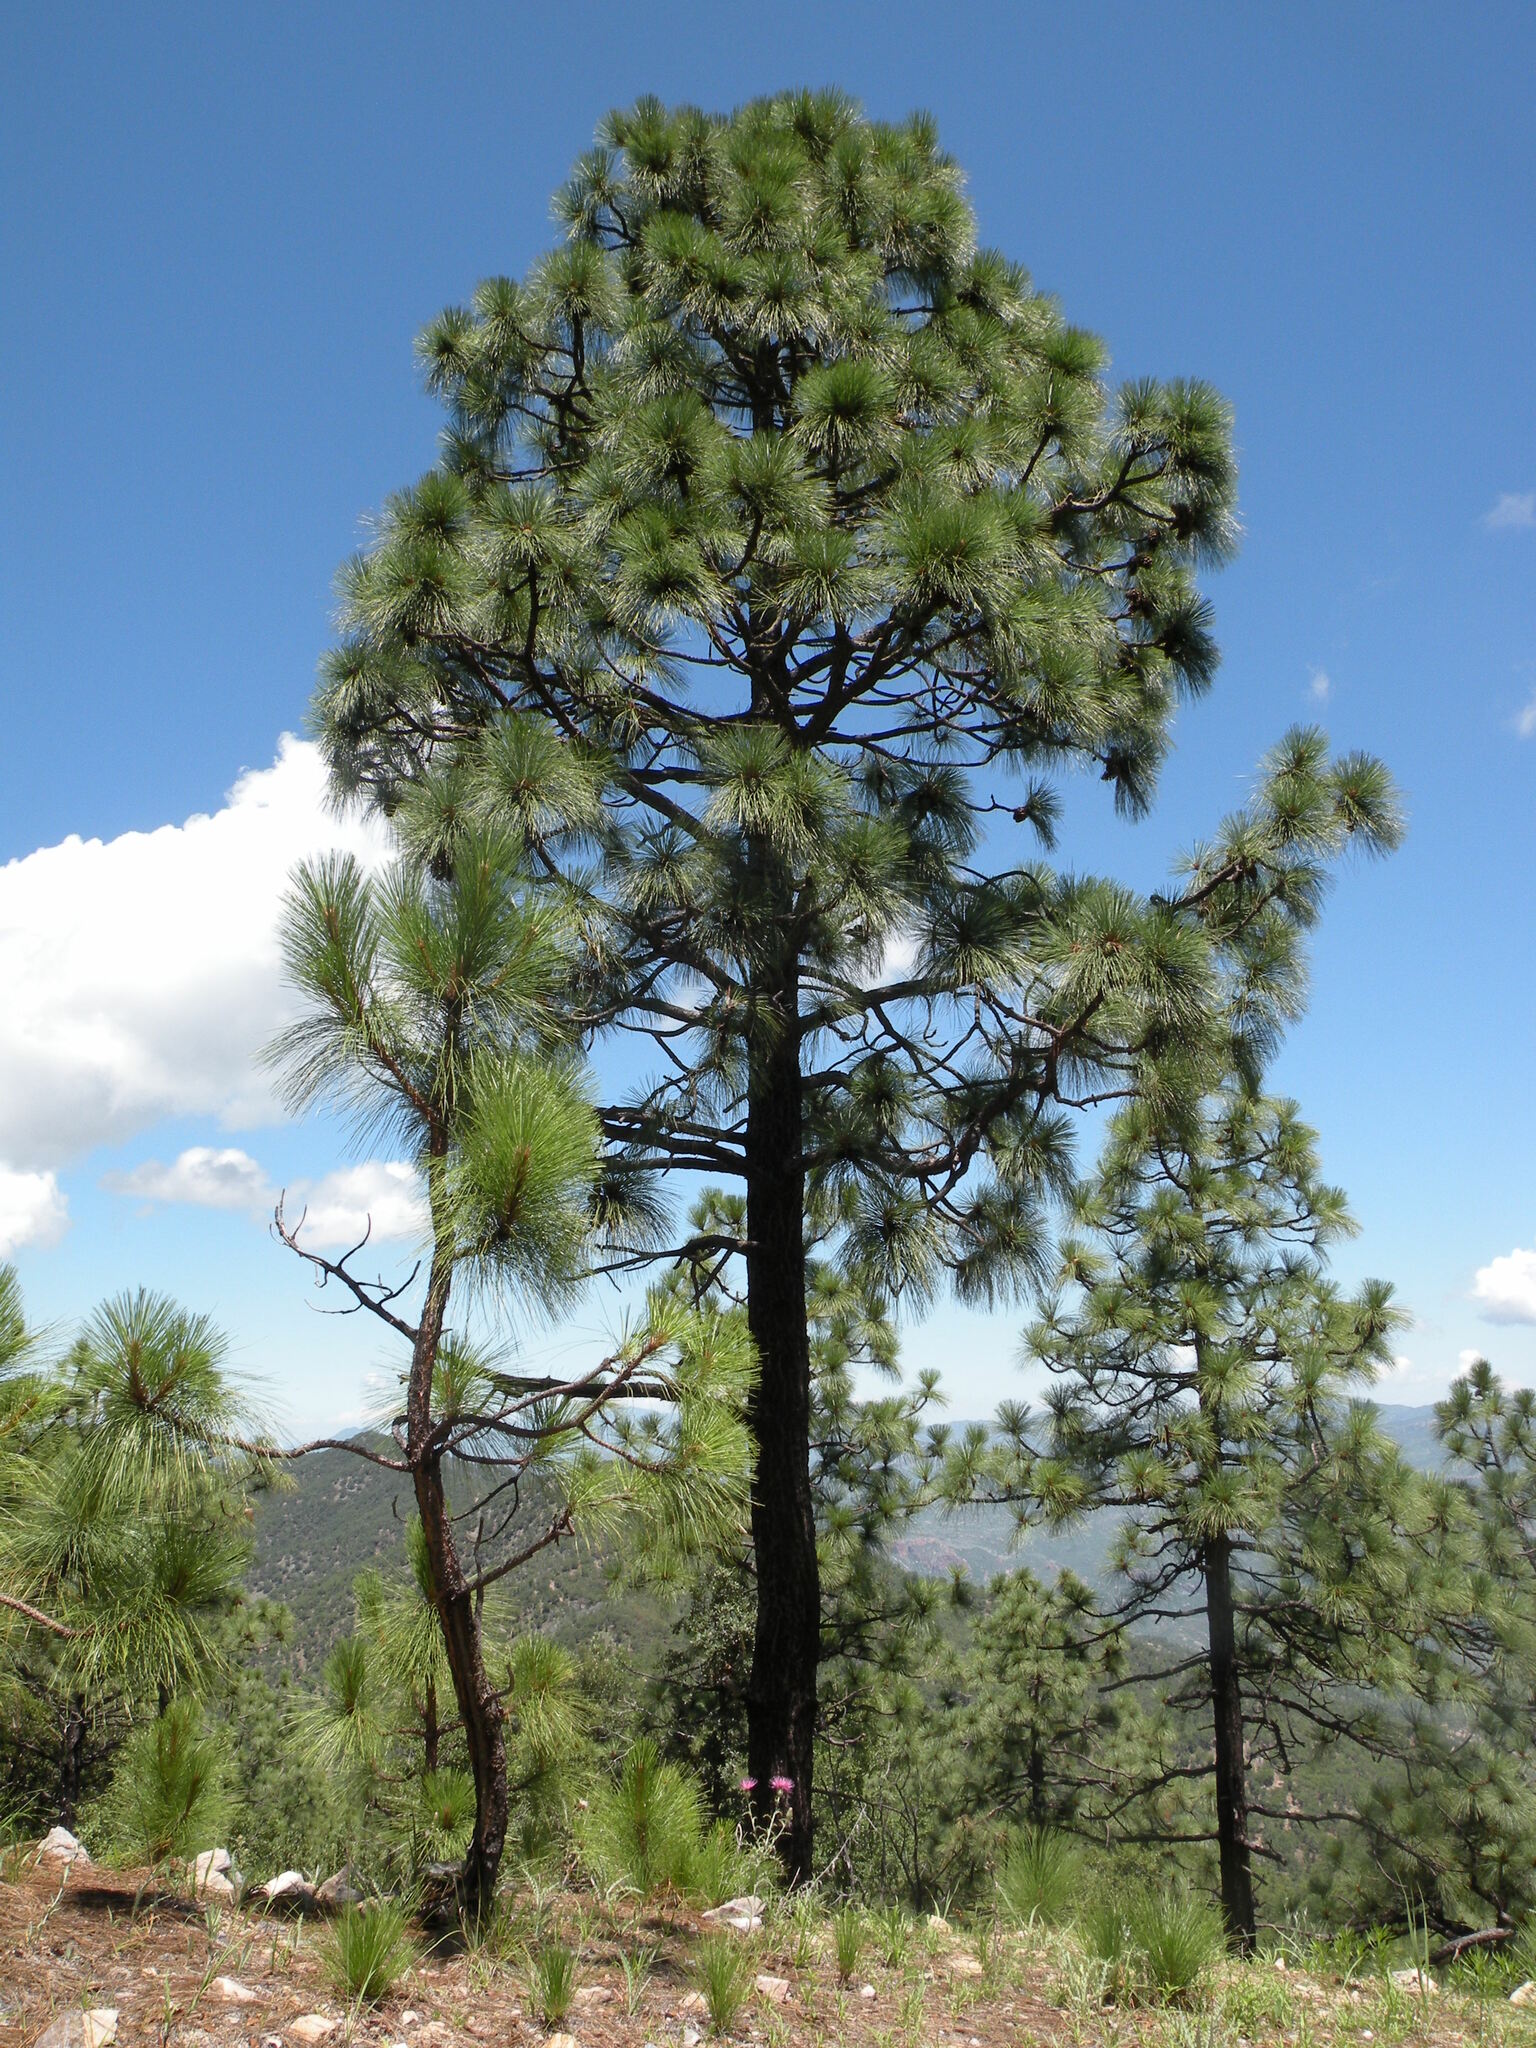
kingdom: Plantae
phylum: Tracheophyta
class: Pinopsida
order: Pinales
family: Pinaceae
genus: Pinus
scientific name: Pinus engelmannii
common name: Apache pine
